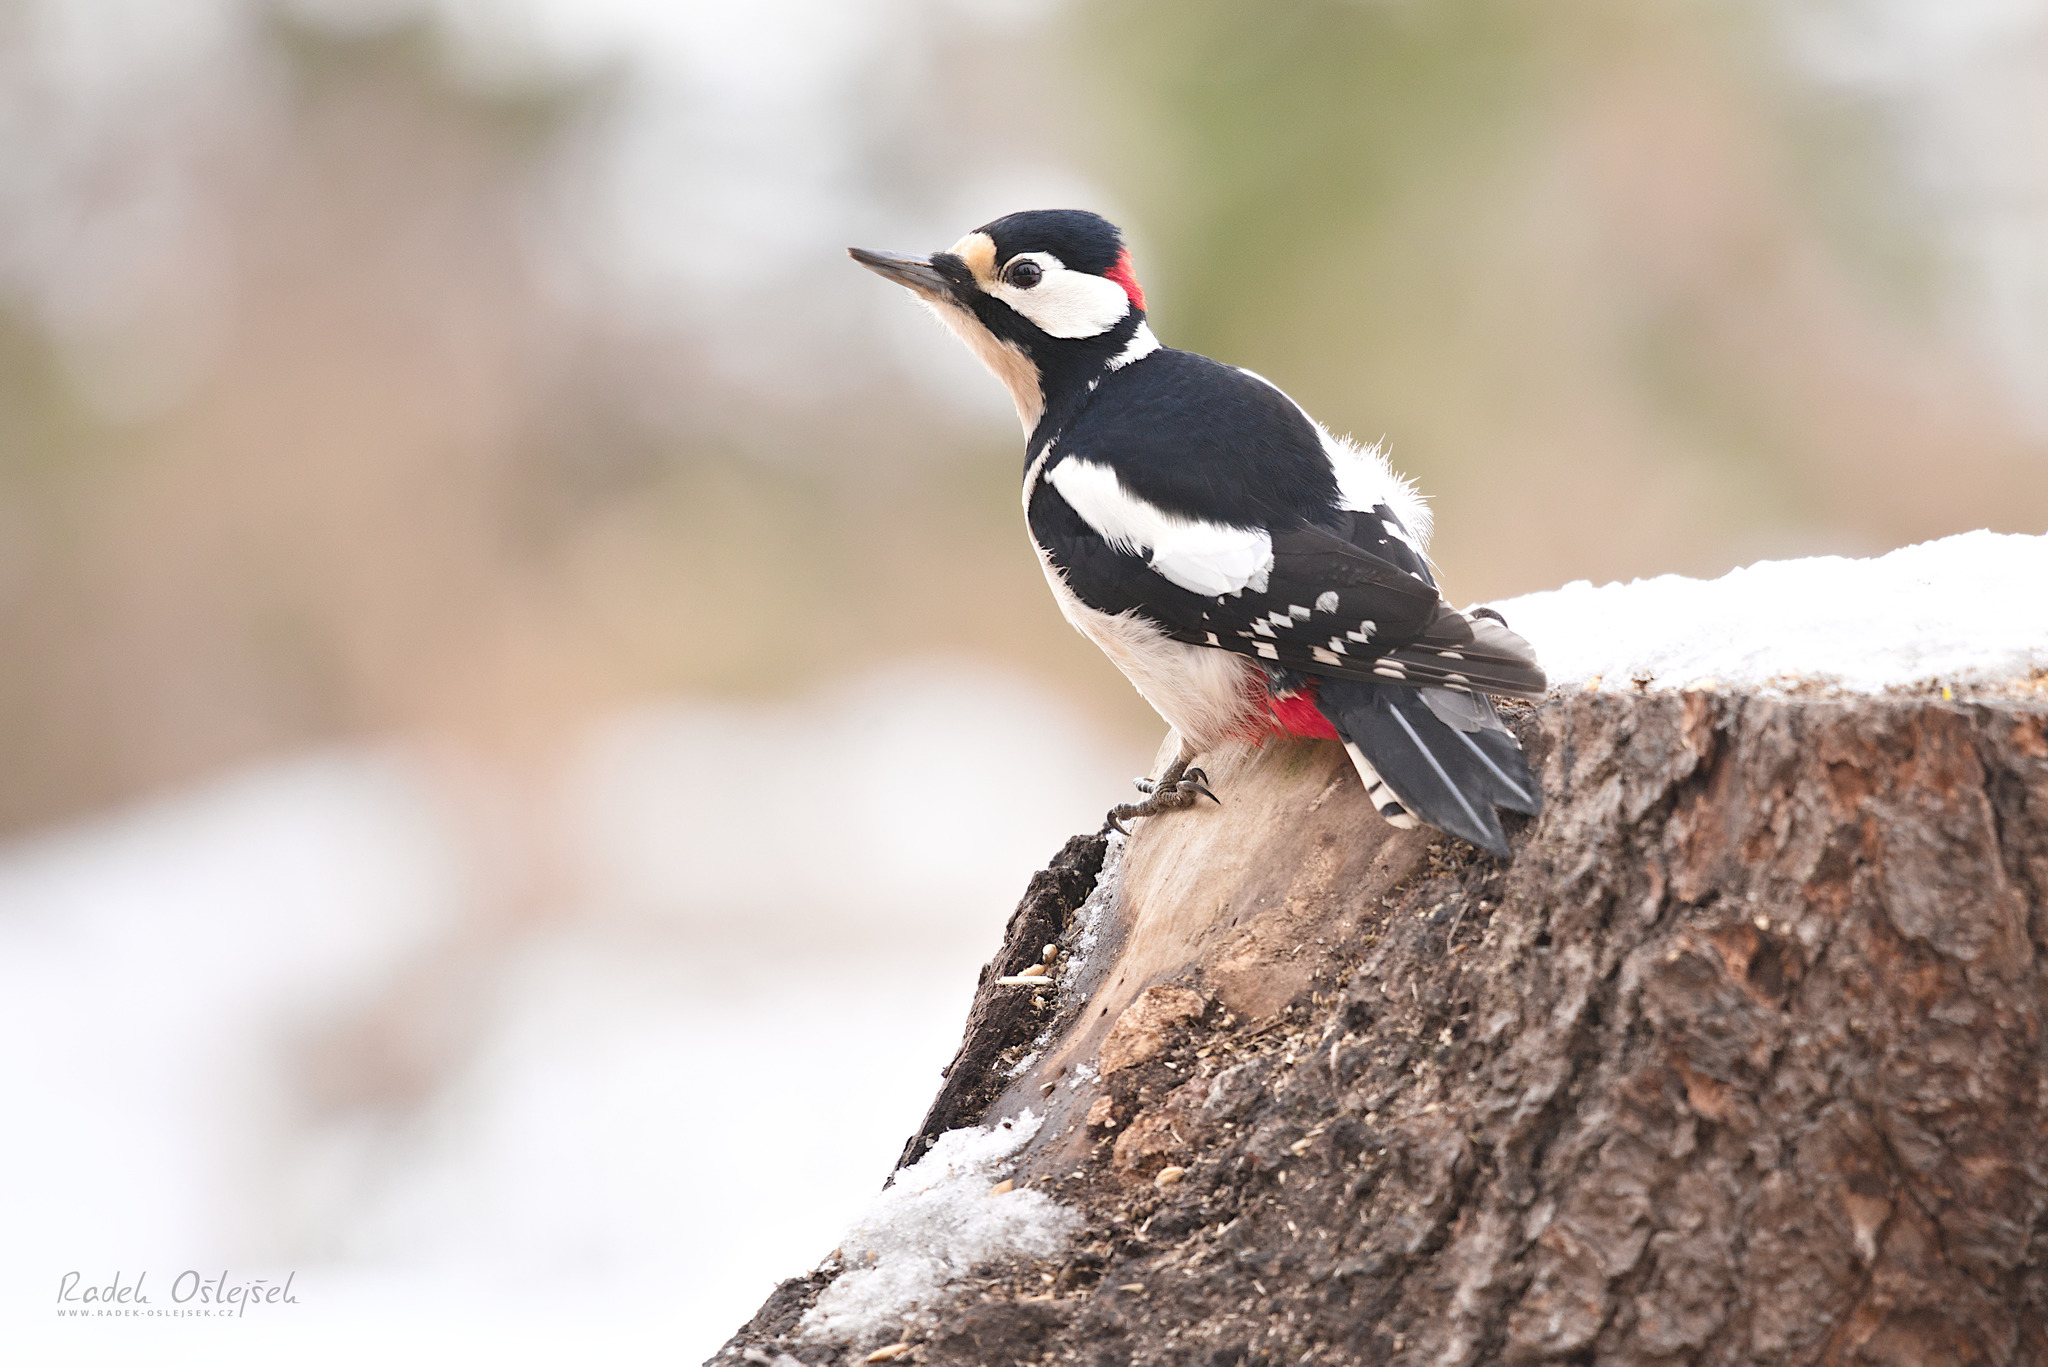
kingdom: Animalia
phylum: Chordata
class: Aves
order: Piciformes
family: Picidae
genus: Dendrocopos
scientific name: Dendrocopos major
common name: Great spotted woodpecker
